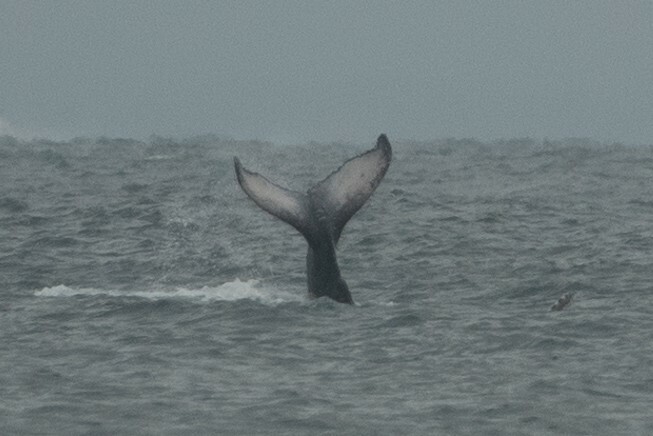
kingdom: Animalia
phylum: Chordata
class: Mammalia
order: Cetacea
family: Balaenopteridae
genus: Megaptera
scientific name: Megaptera novaeangliae
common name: Humpback whale
